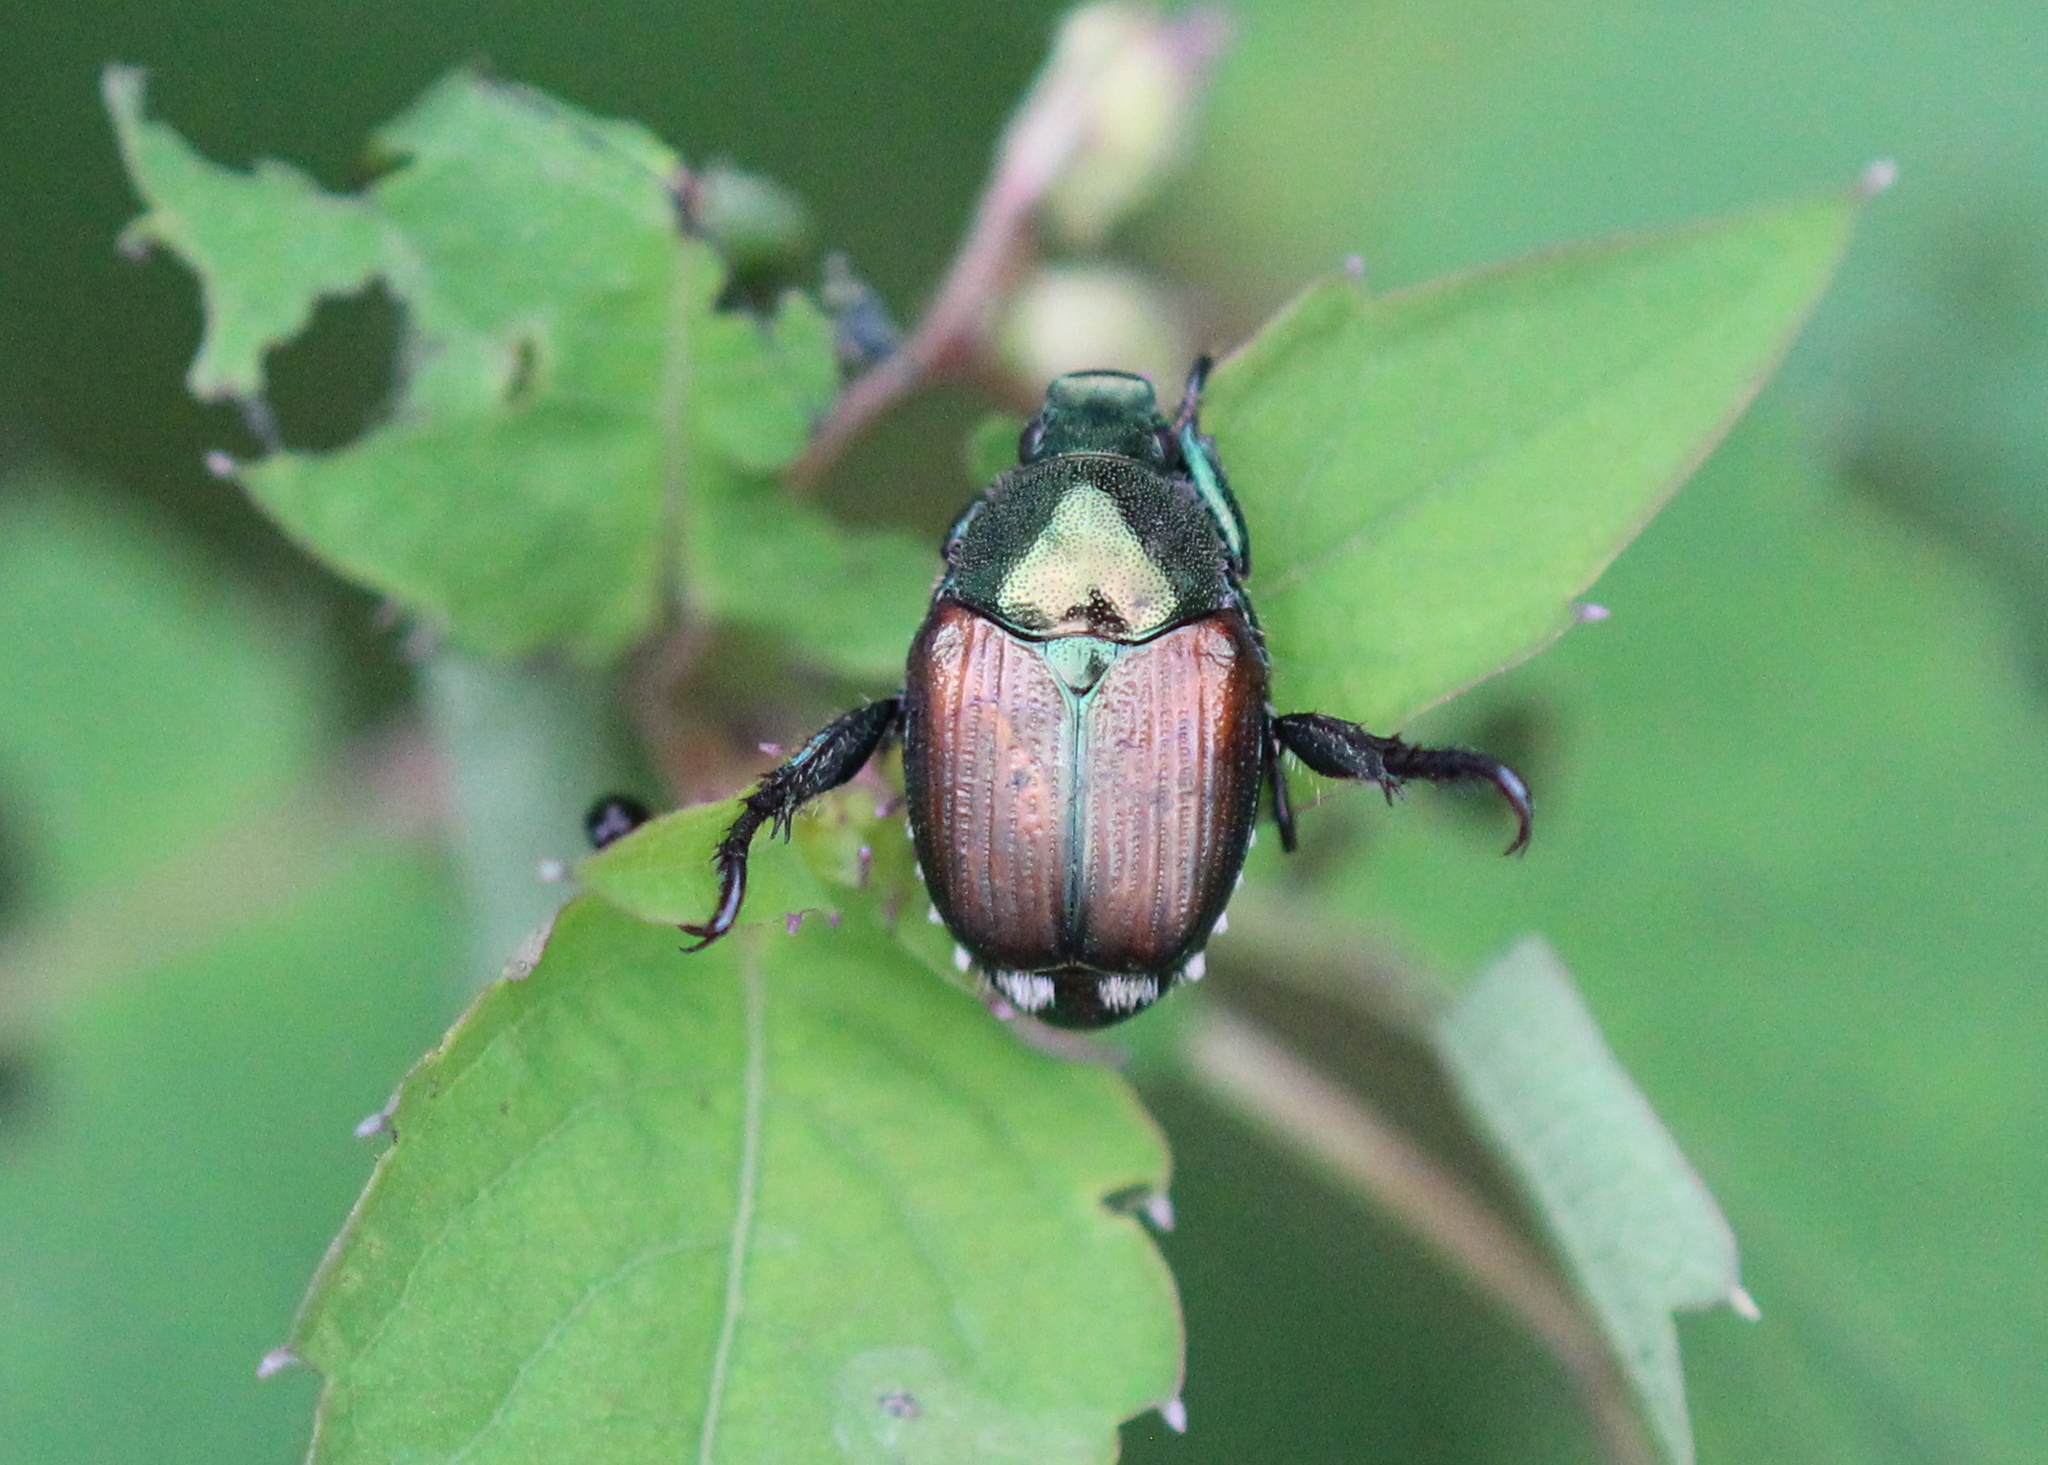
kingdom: Animalia
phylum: Arthropoda
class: Insecta
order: Coleoptera
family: Scarabaeidae
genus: Popillia
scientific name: Popillia japonica
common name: Japanese beetle
